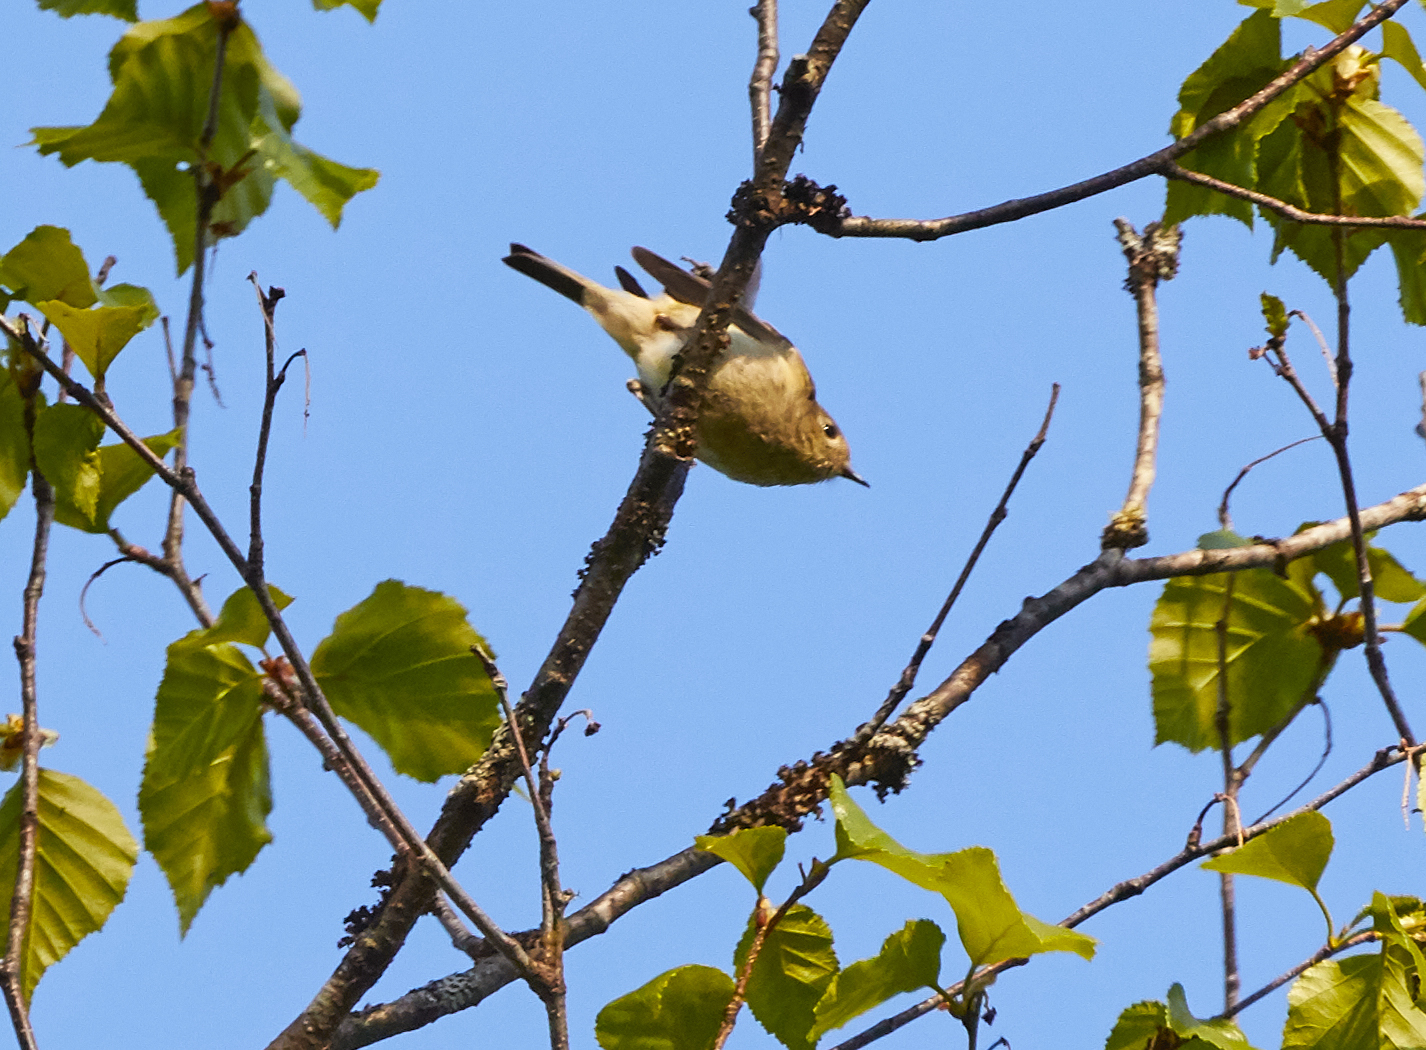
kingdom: Animalia
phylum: Chordata
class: Aves
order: Passeriformes
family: Regulidae
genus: Regulus
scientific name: Regulus calendula
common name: Ruby-crowned kinglet
